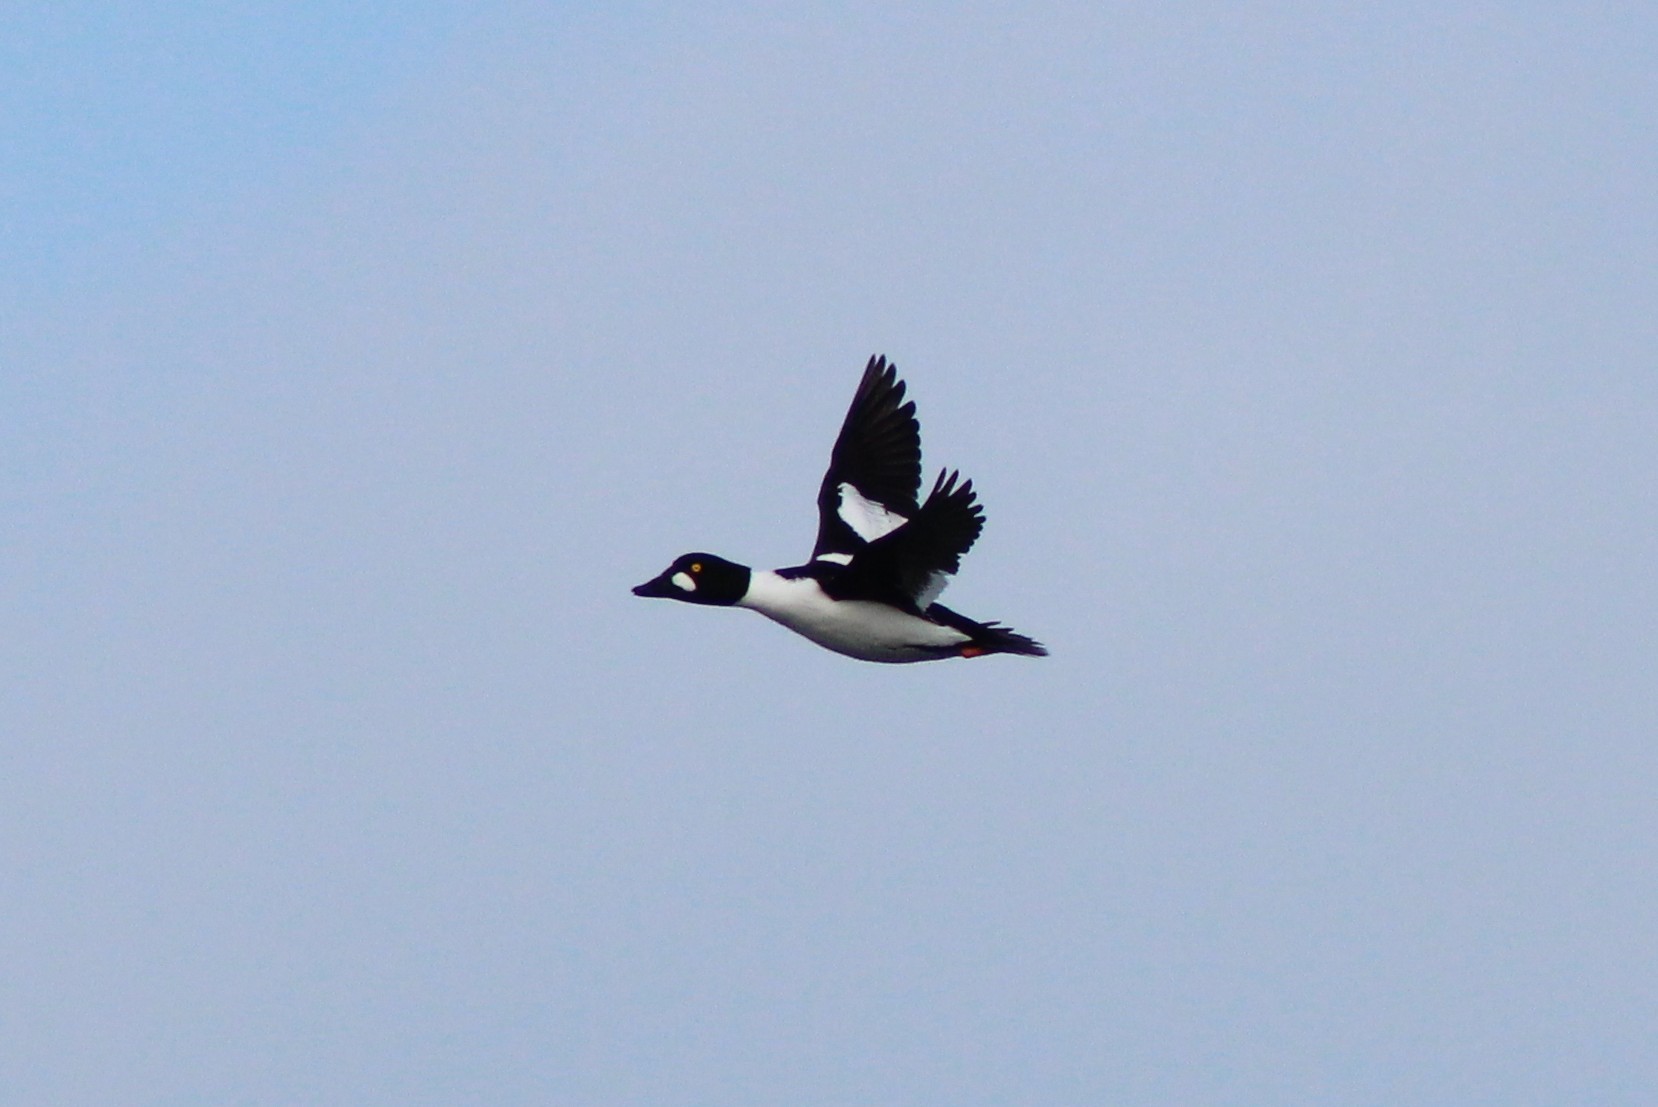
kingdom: Animalia
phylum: Chordata
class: Aves
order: Anseriformes
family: Anatidae
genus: Bucephala
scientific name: Bucephala clangula
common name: Common goldeneye
